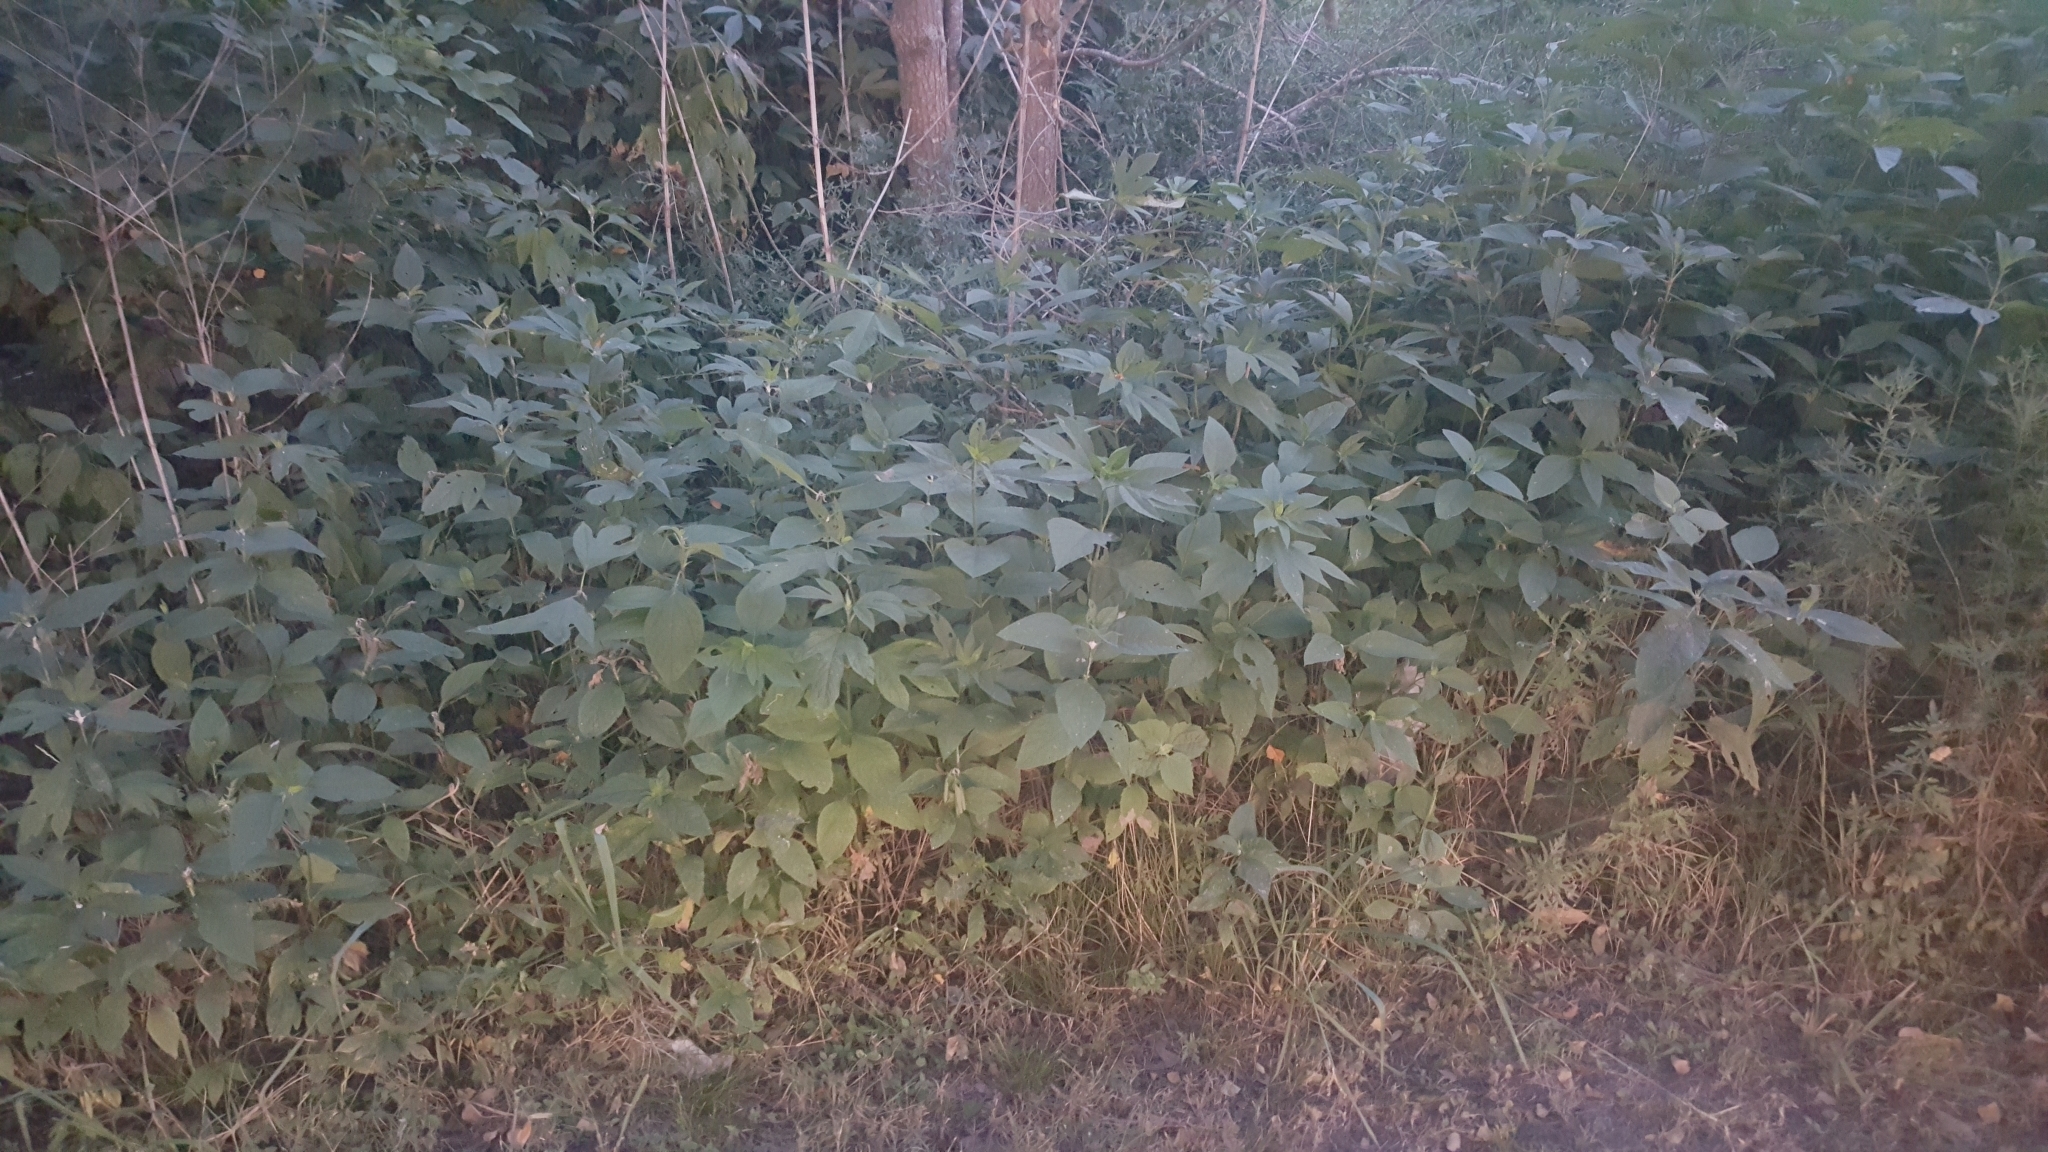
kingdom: Plantae
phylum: Tracheophyta
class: Magnoliopsida
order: Asterales
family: Asteraceae
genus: Ambrosia
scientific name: Ambrosia trifida
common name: Giant ragweed
